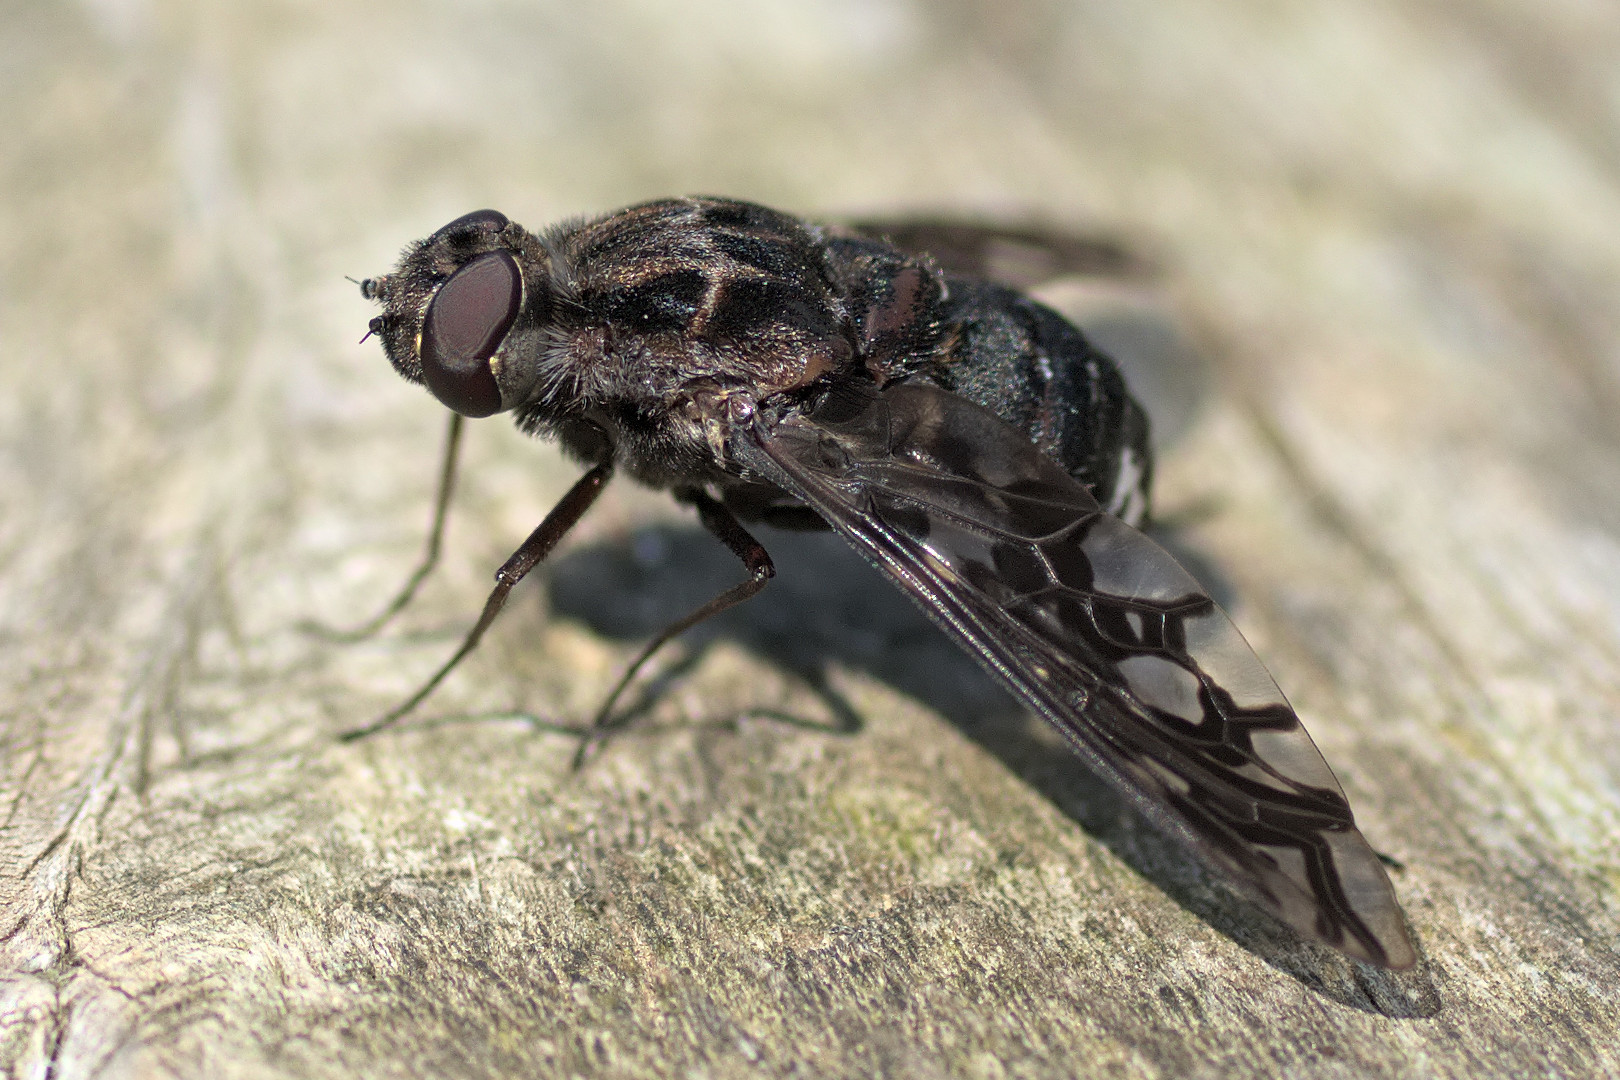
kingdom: Animalia
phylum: Arthropoda
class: Insecta
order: Diptera
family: Bombyliidae
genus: Xenox
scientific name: Xenox tigrinus
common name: Tiger bee fly
